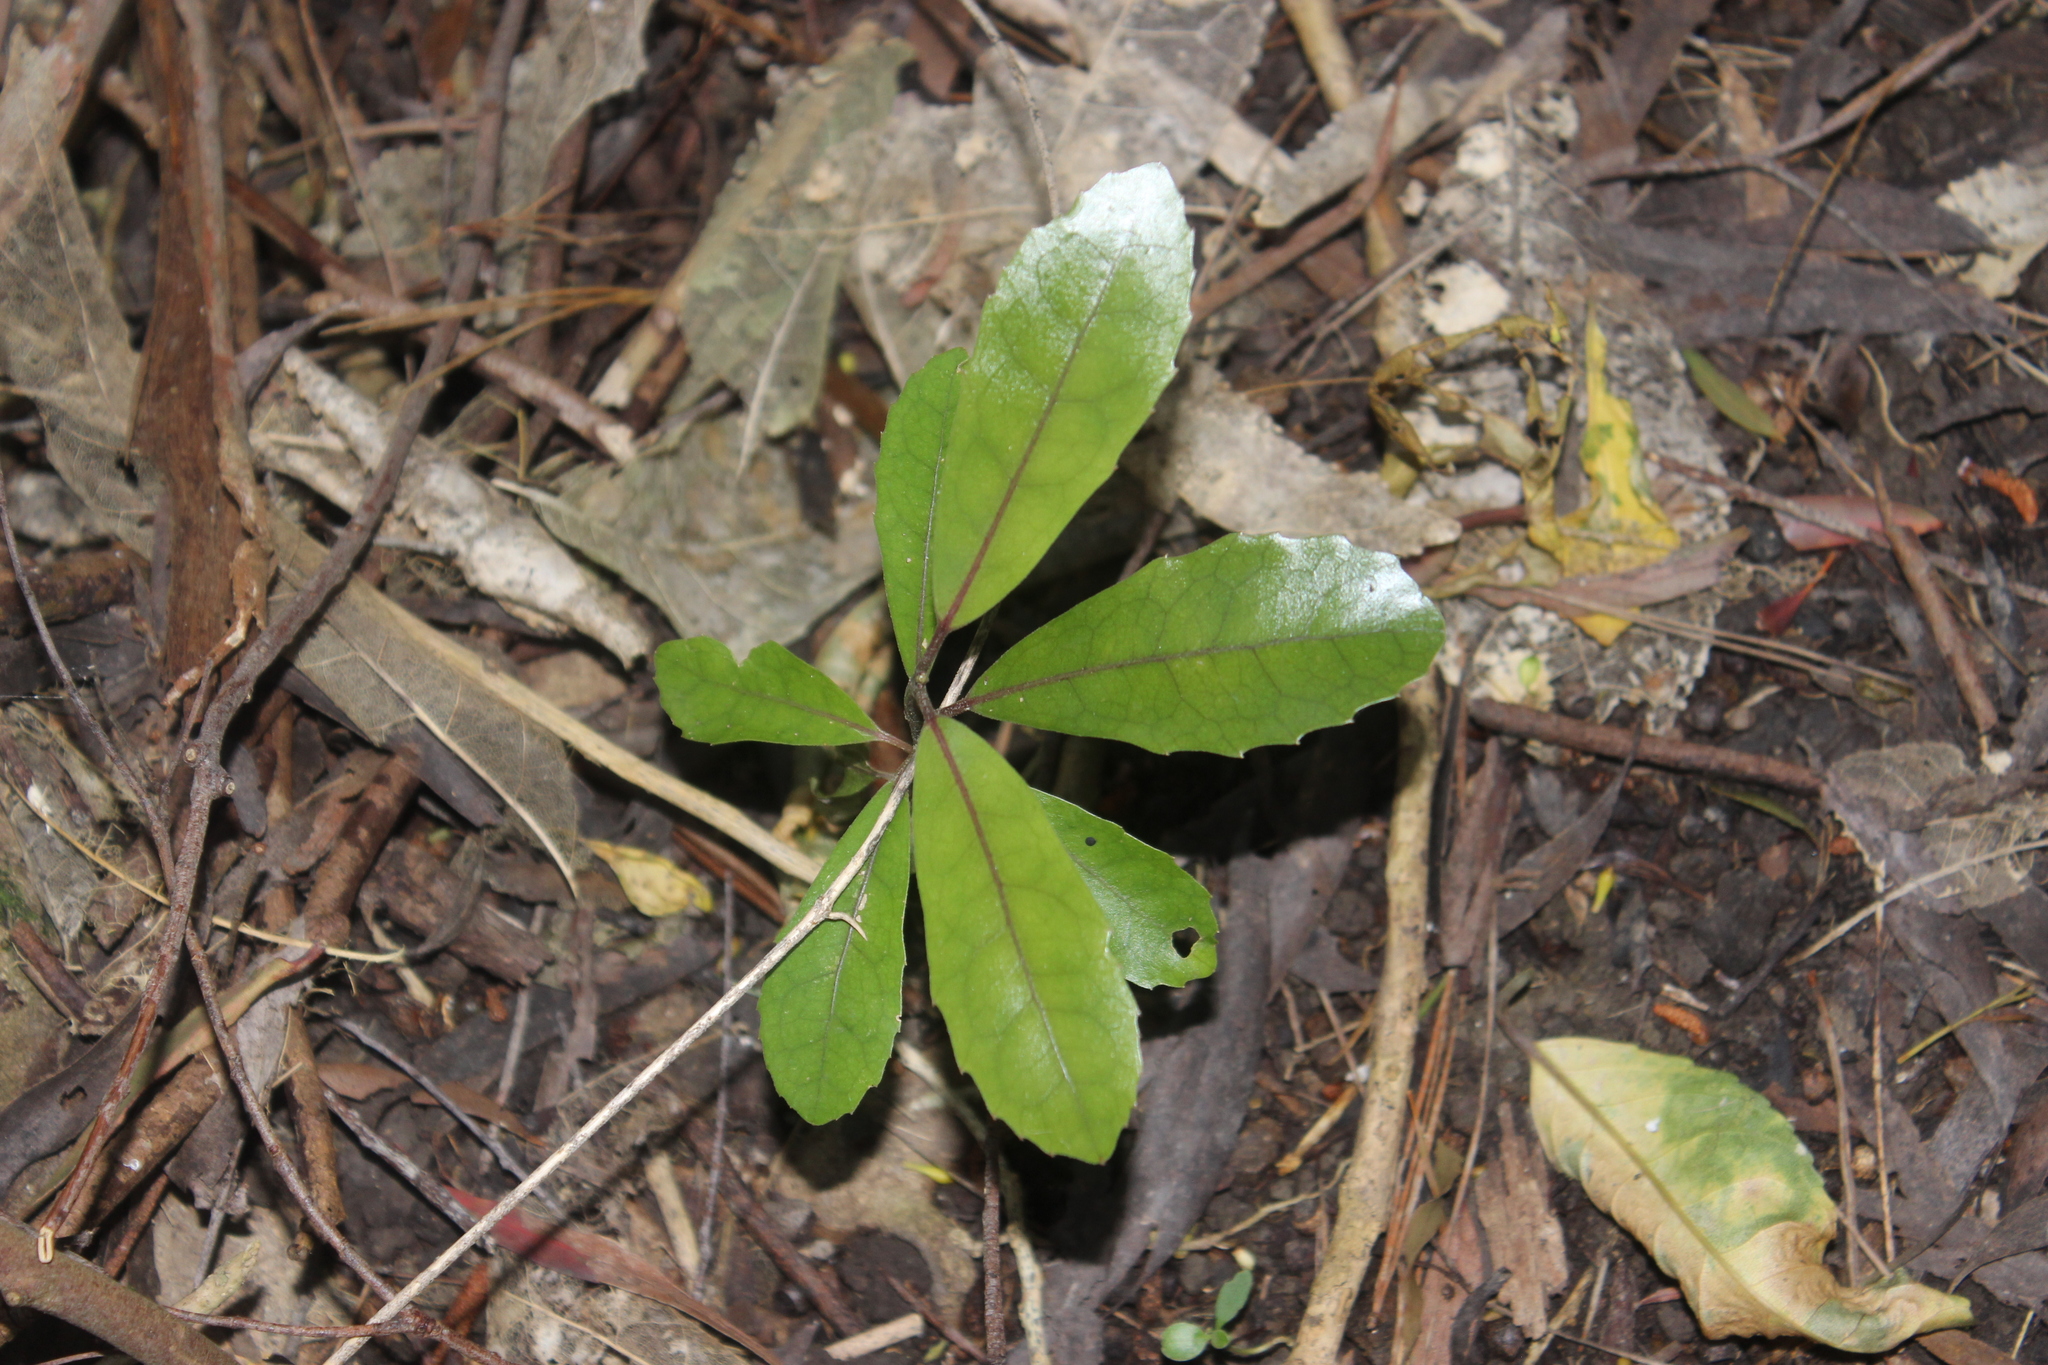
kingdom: Plantae
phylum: Tracheophyta
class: Magnoliopsida
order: Laurales
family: Monimiaceae
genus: Hedycarya
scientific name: Hedycarya arborea
